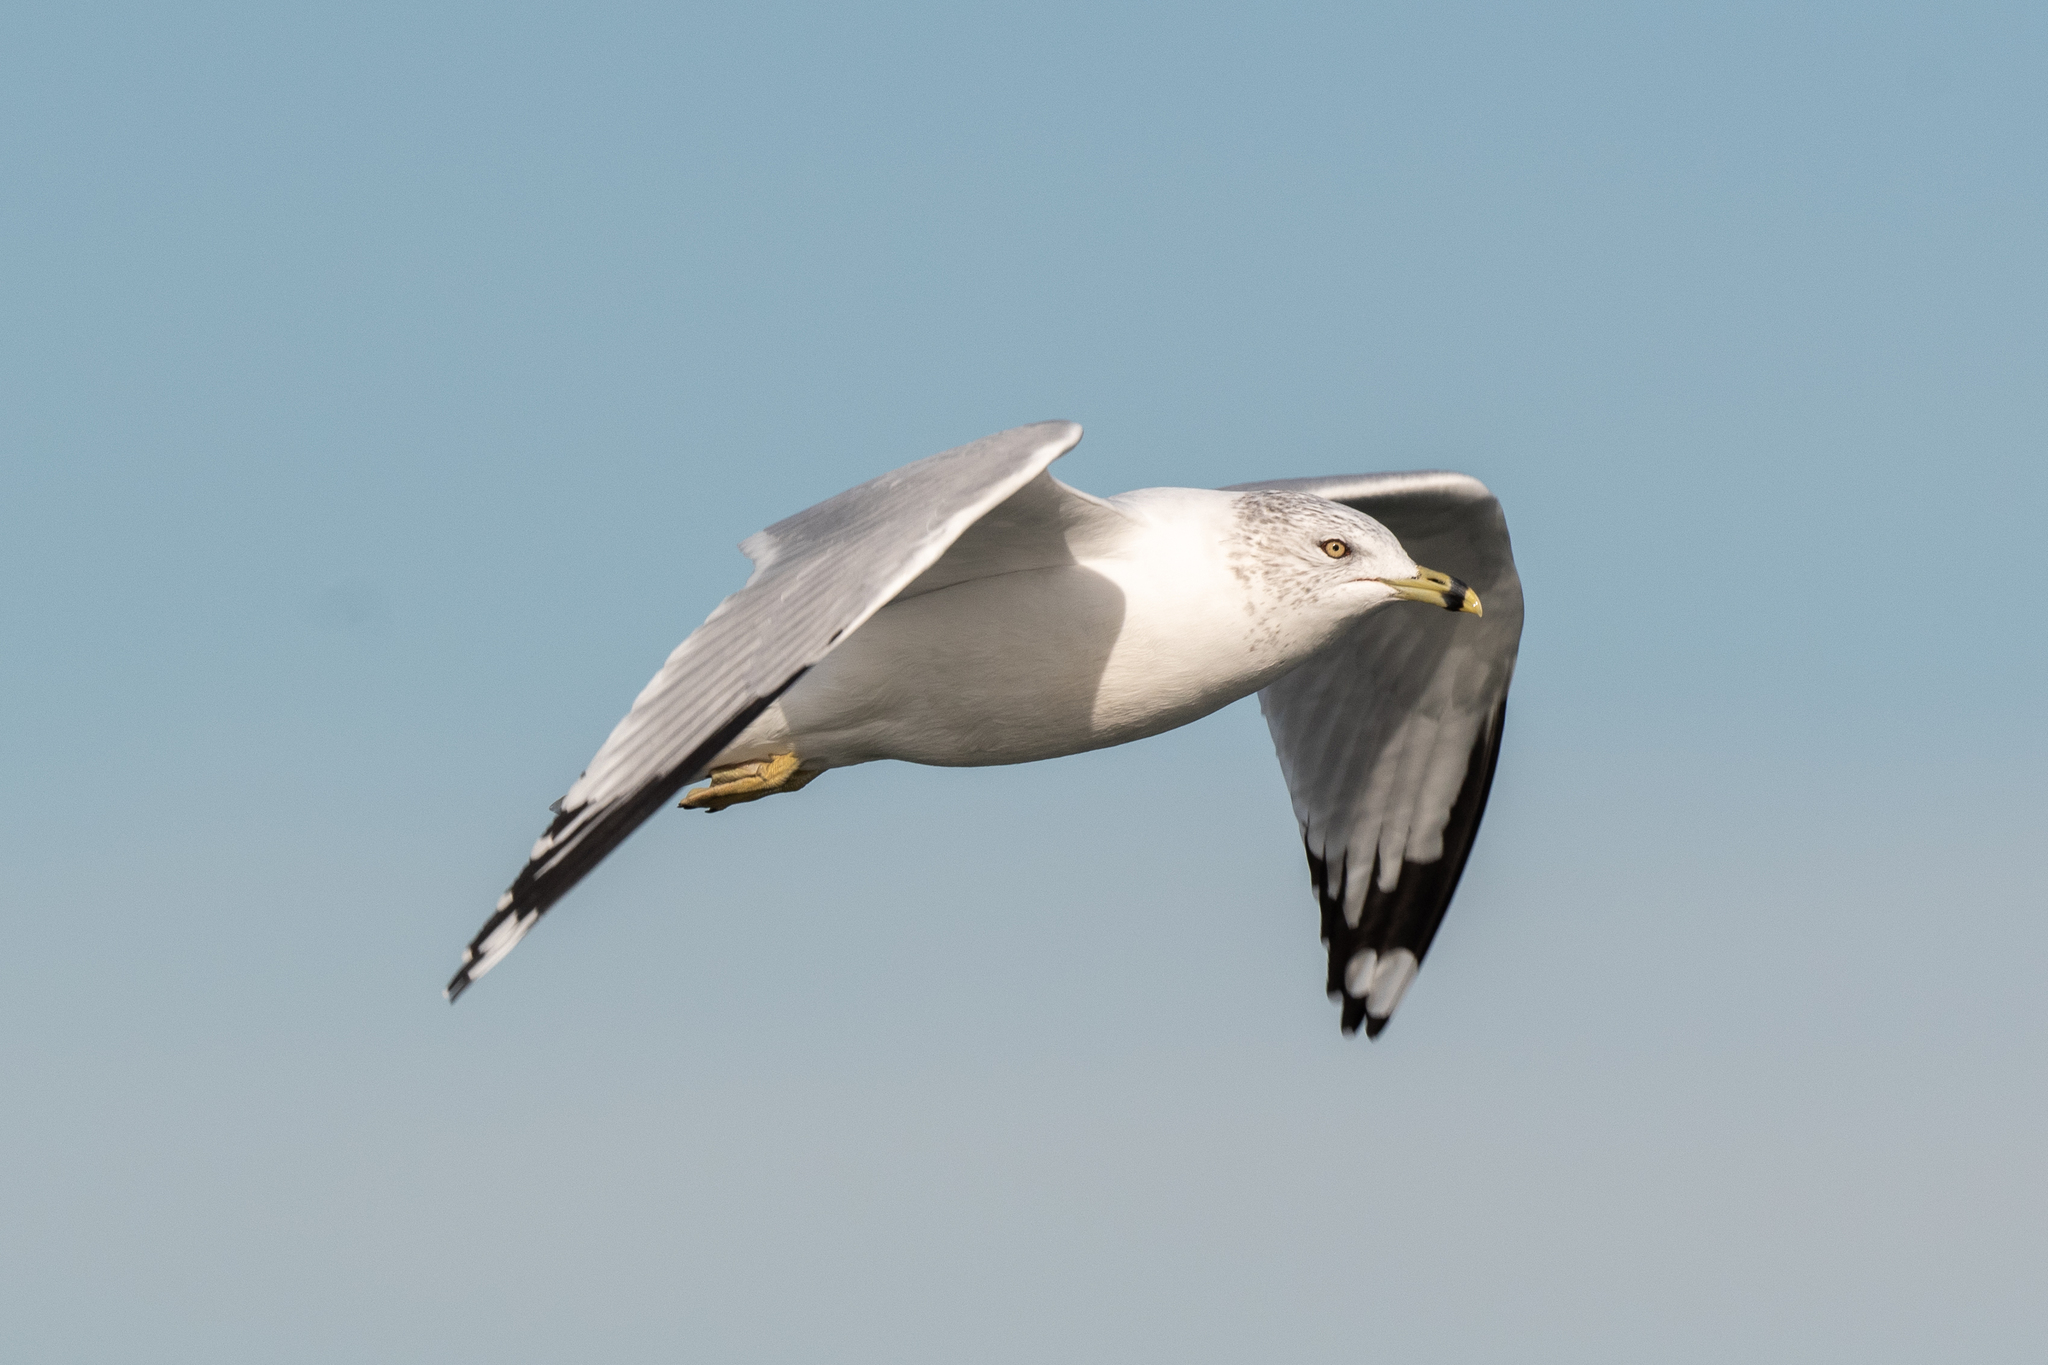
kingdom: Animalia
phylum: Chordata
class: Aves
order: Charadriiformes
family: Laridae
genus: Larus
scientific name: Larus delawarensis
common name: Ring-billed gull
